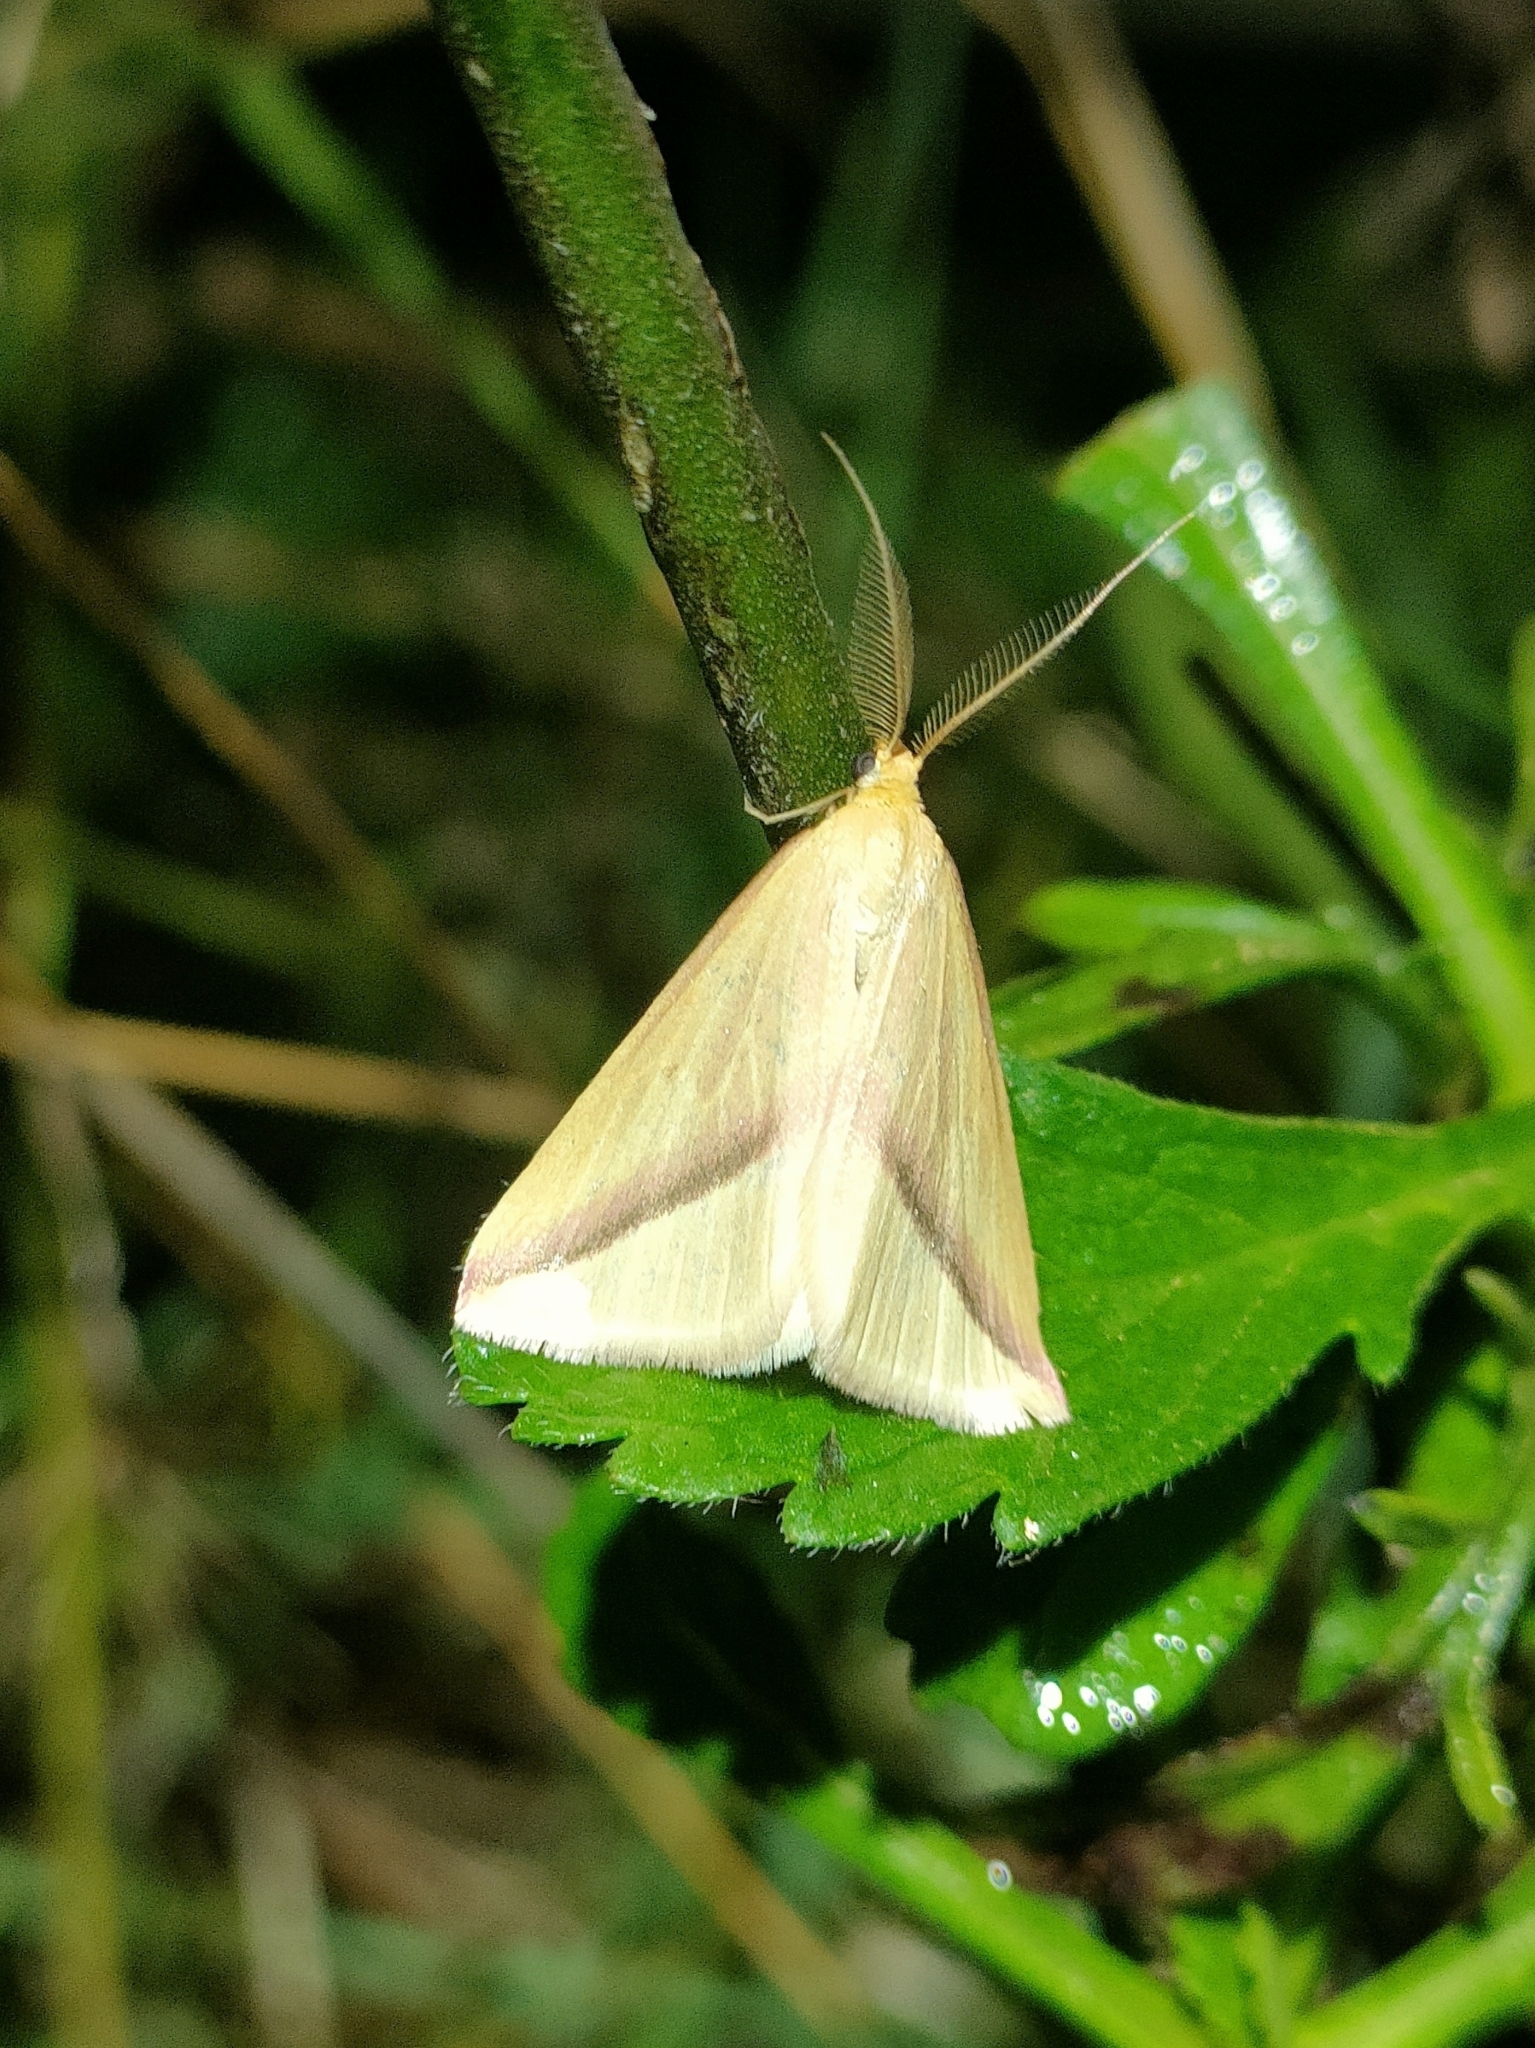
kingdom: Animalia
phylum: Arthropoda
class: Insecta
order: Lepidoptera
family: Geometridae
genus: Rhodometra
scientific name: Rhodometra sacraria
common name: Vestal
